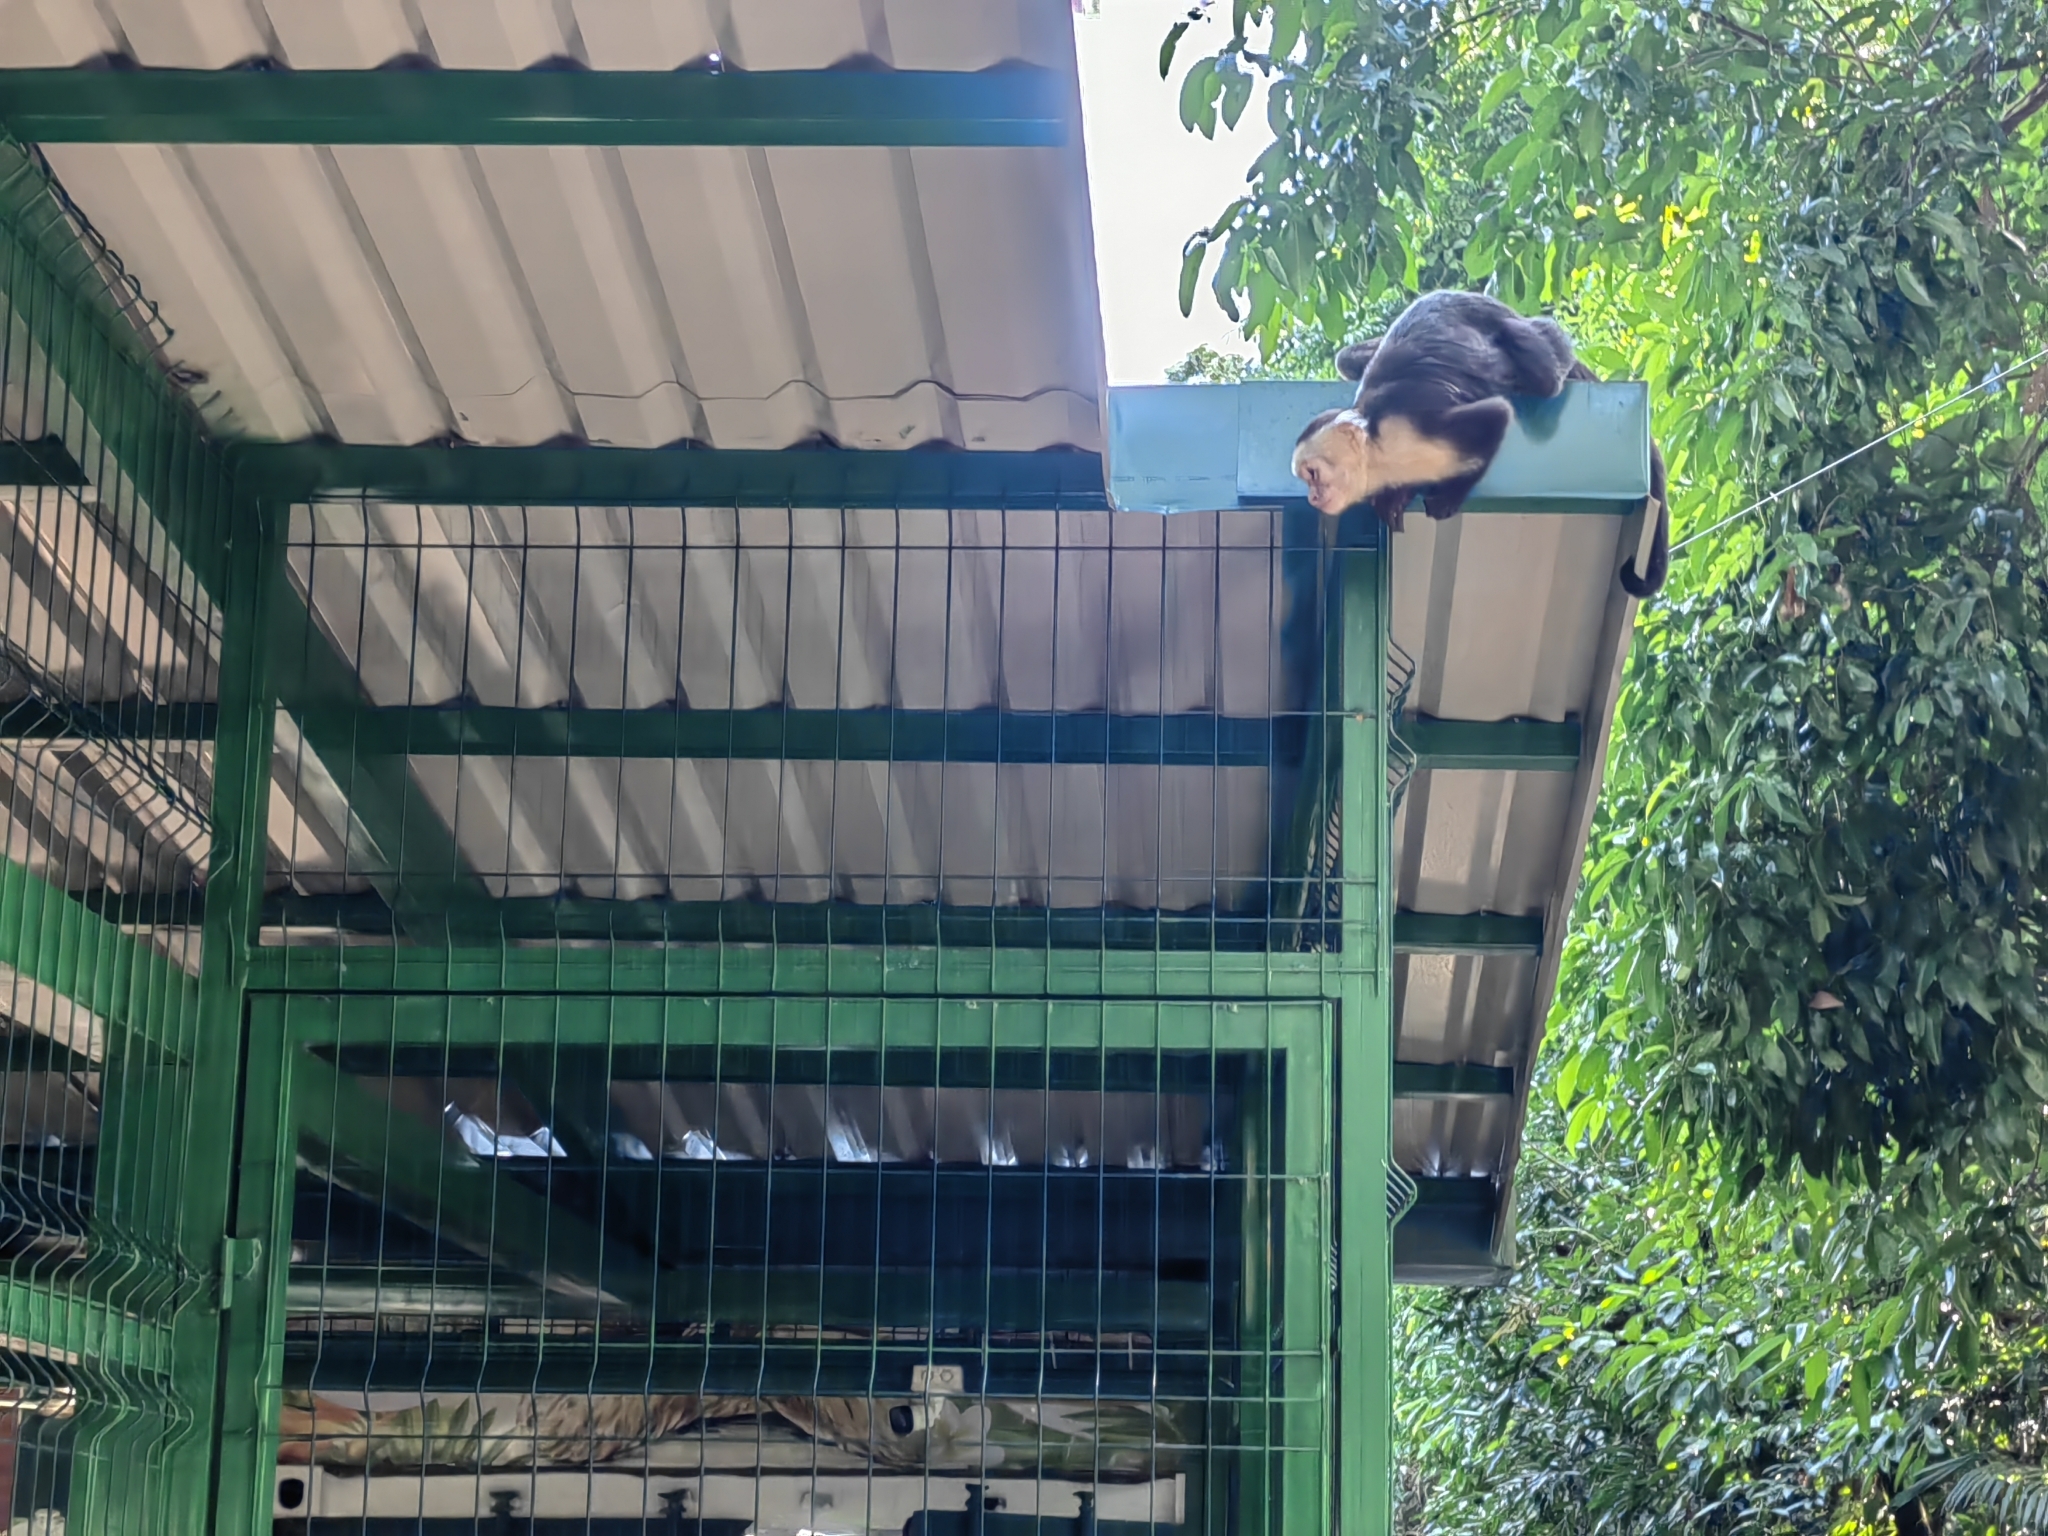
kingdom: Animalia
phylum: Chordata
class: Mammalia
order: Primates
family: Cebidae
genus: Cebus
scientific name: Cebus imitator
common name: Panamanian white-faced capuchin
